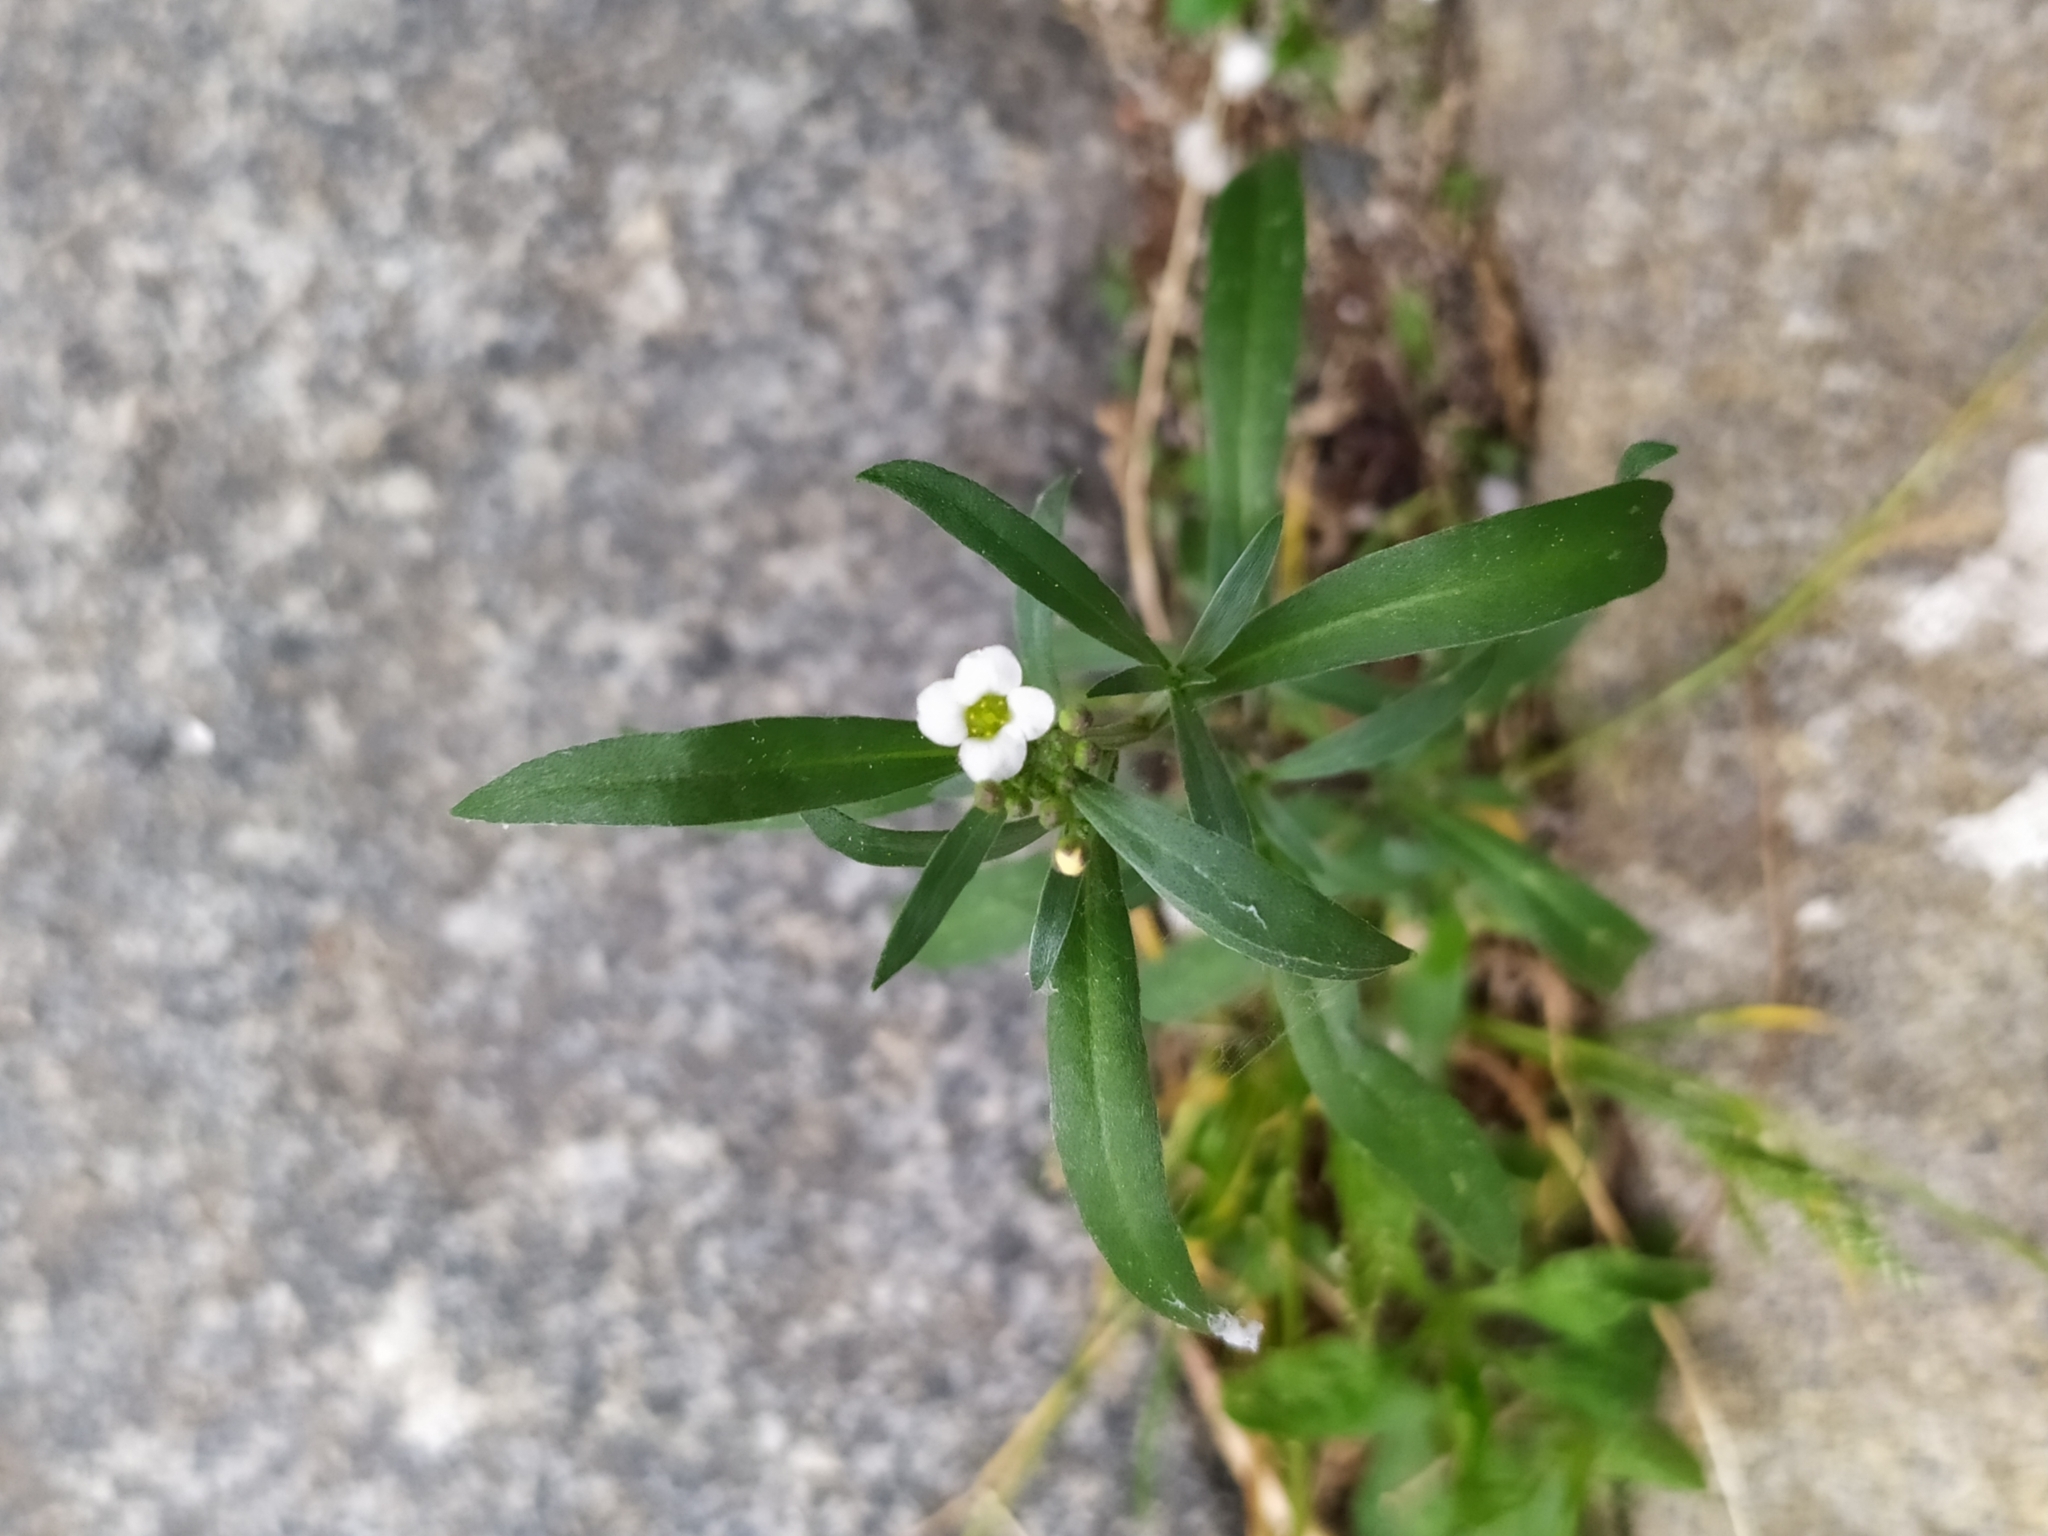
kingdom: Plantae
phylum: Tracheophyta
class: Magnoliopsida
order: Brassicales
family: Brassicaceae
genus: Lobularia
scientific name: Lobularia maritima
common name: Sweet alison
